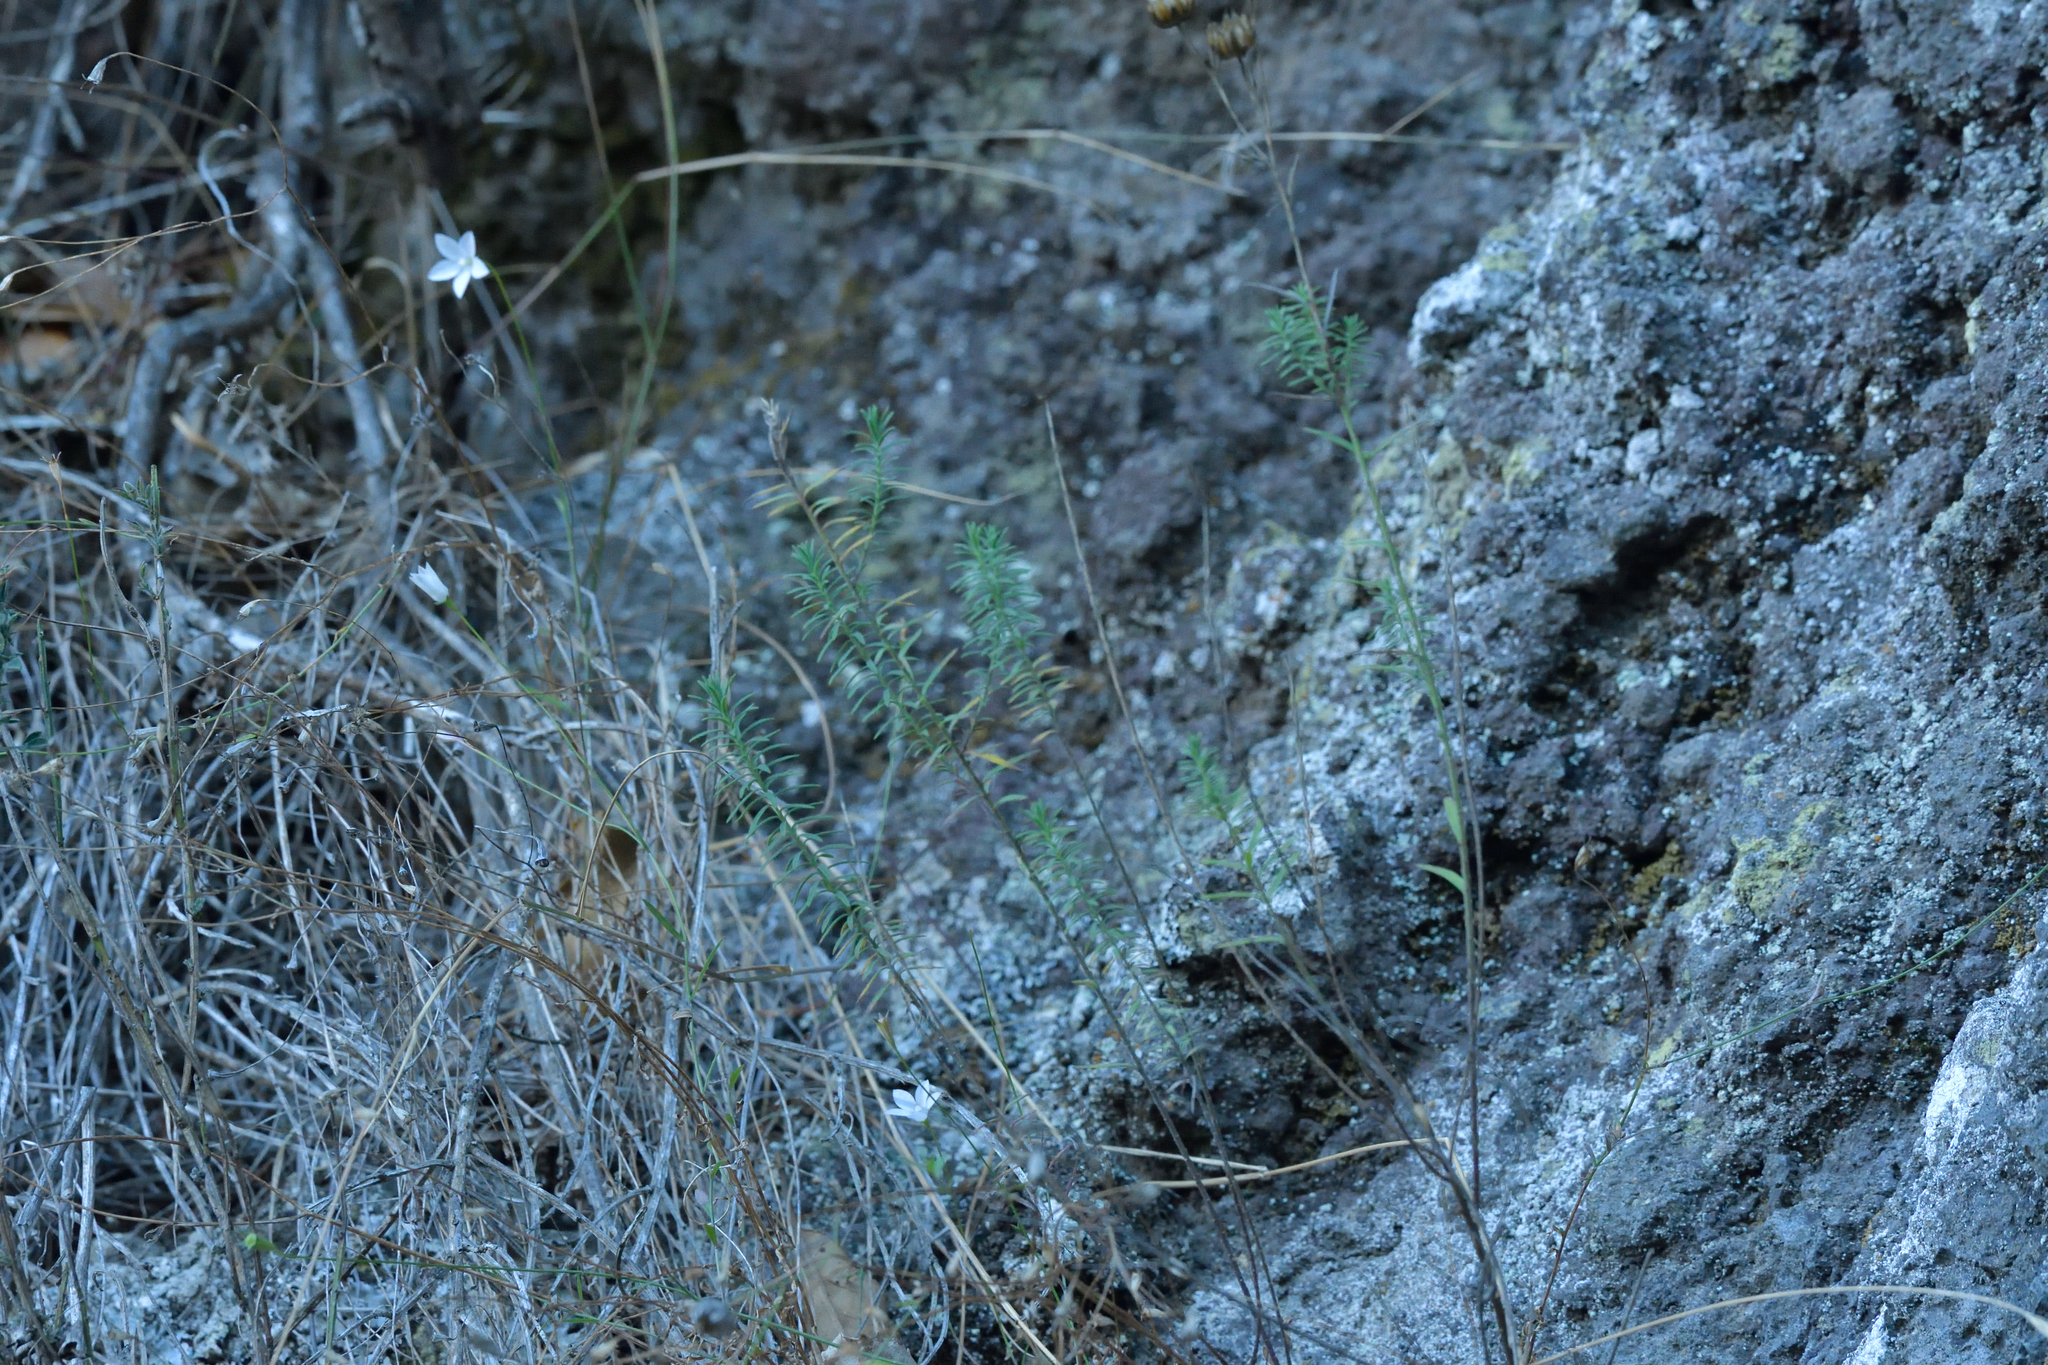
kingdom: Plantae
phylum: Tracheophyta
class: Magnoliopsida
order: Malpighiales
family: Linaceae
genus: Linum
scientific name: Linum monogynum
